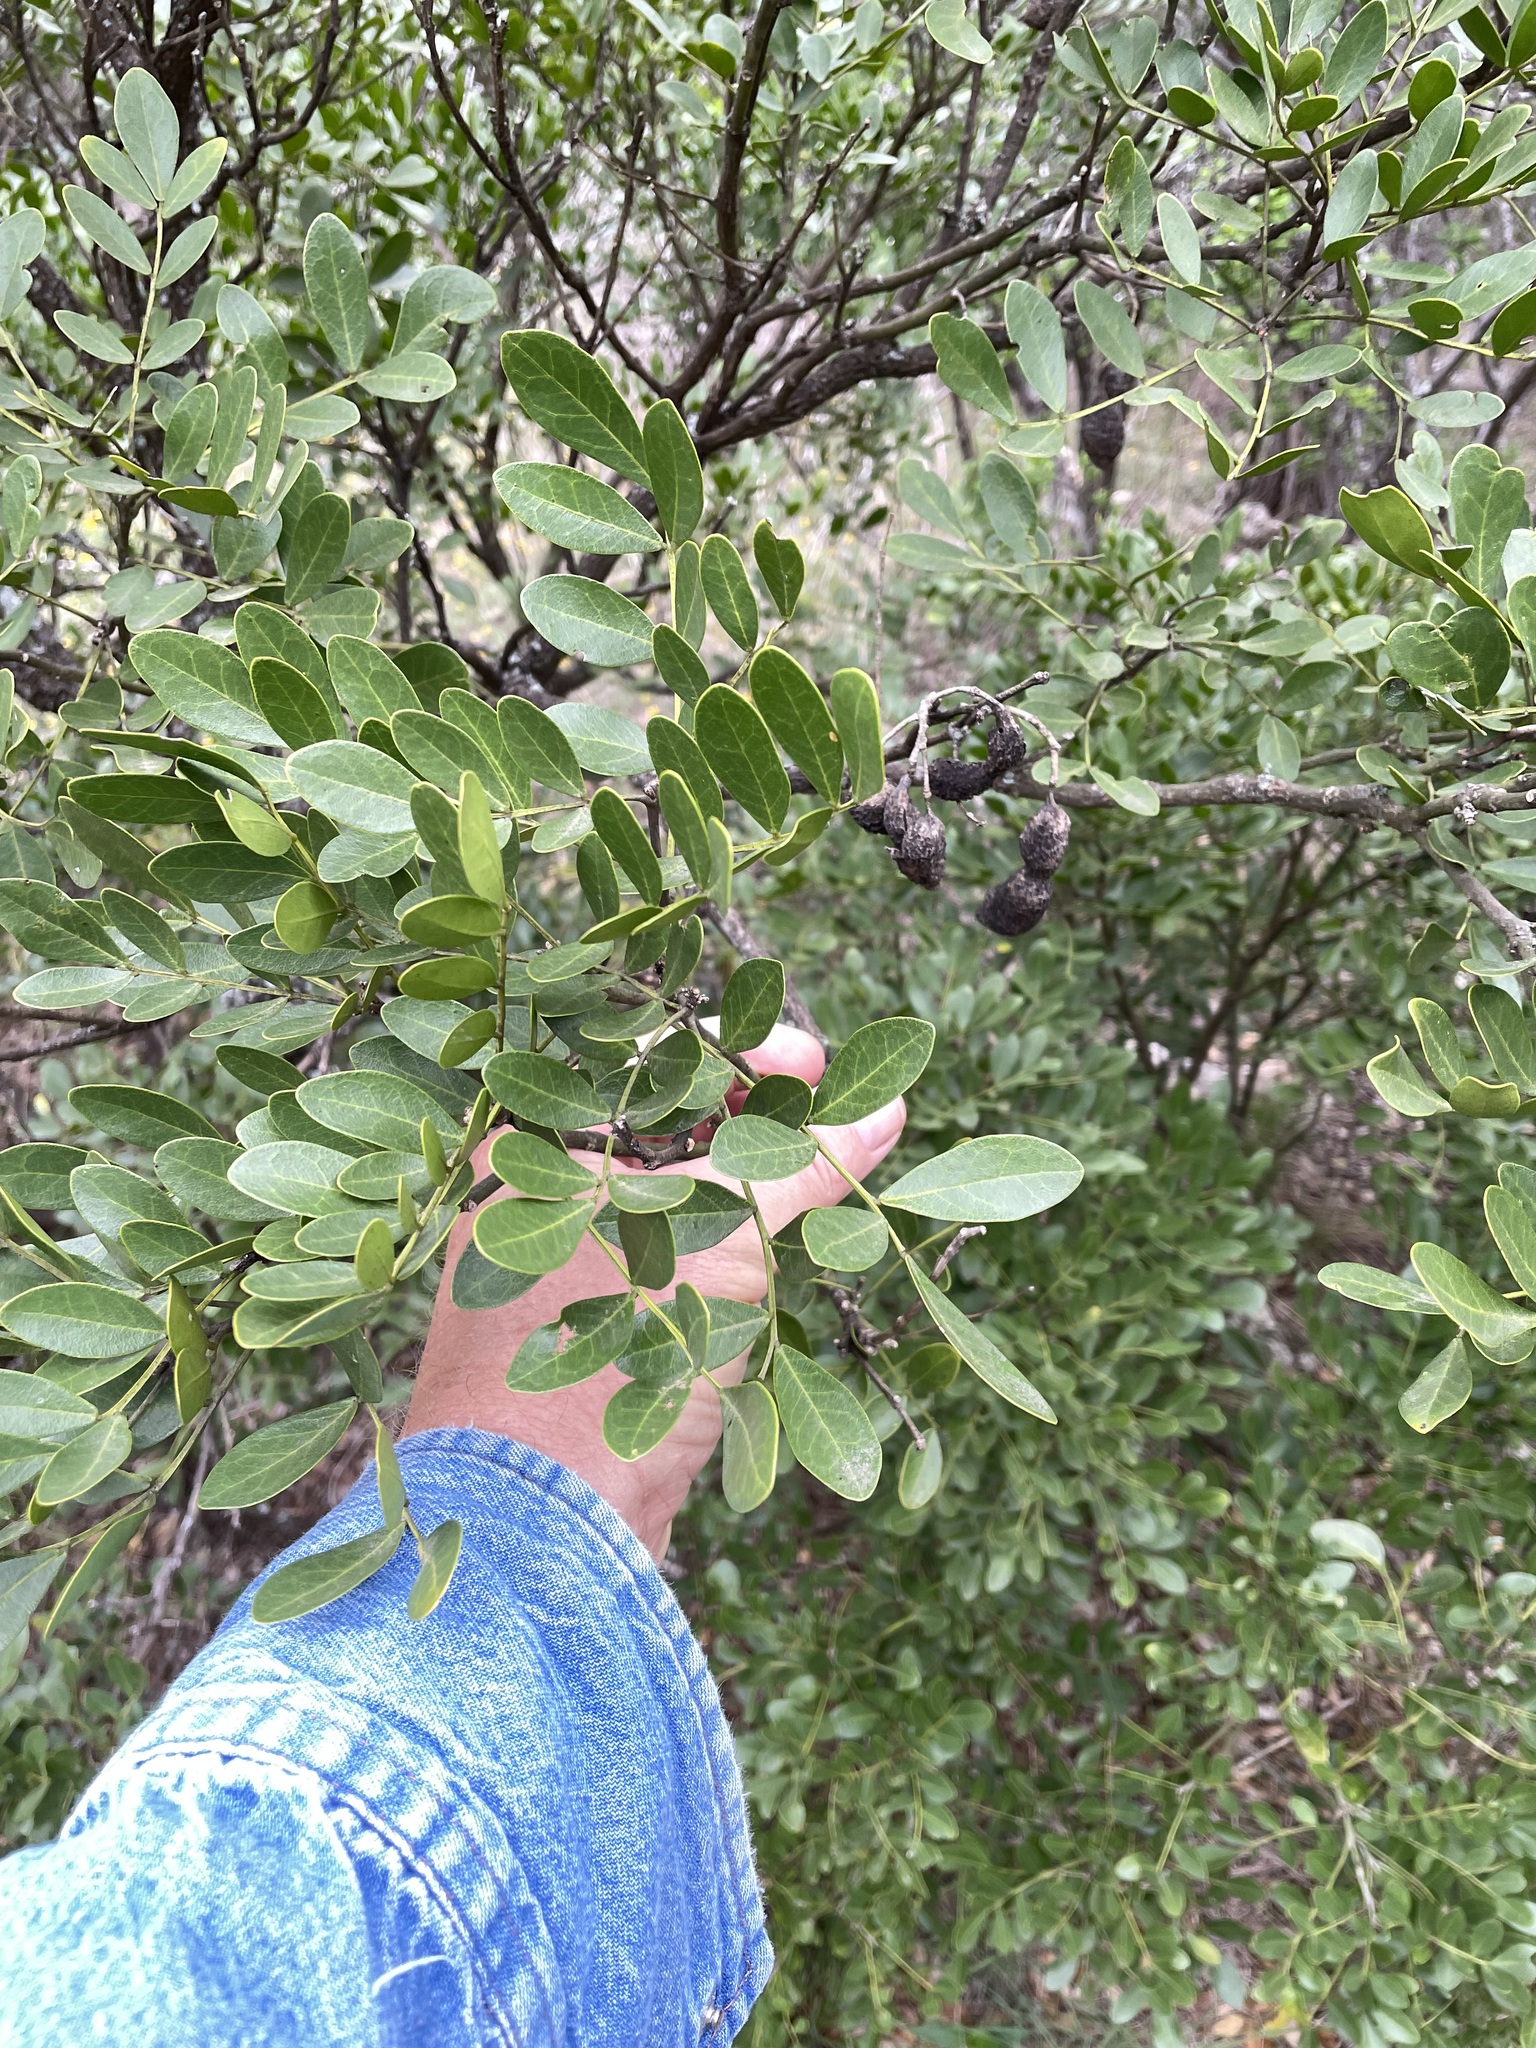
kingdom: Plantae
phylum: Tracheophyta
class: Magnoliopsida
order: Fabales
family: Fabaceae
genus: Dermatophyllum
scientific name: Dermatophyllum secundiflorum
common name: Texas-mountain-laurel
